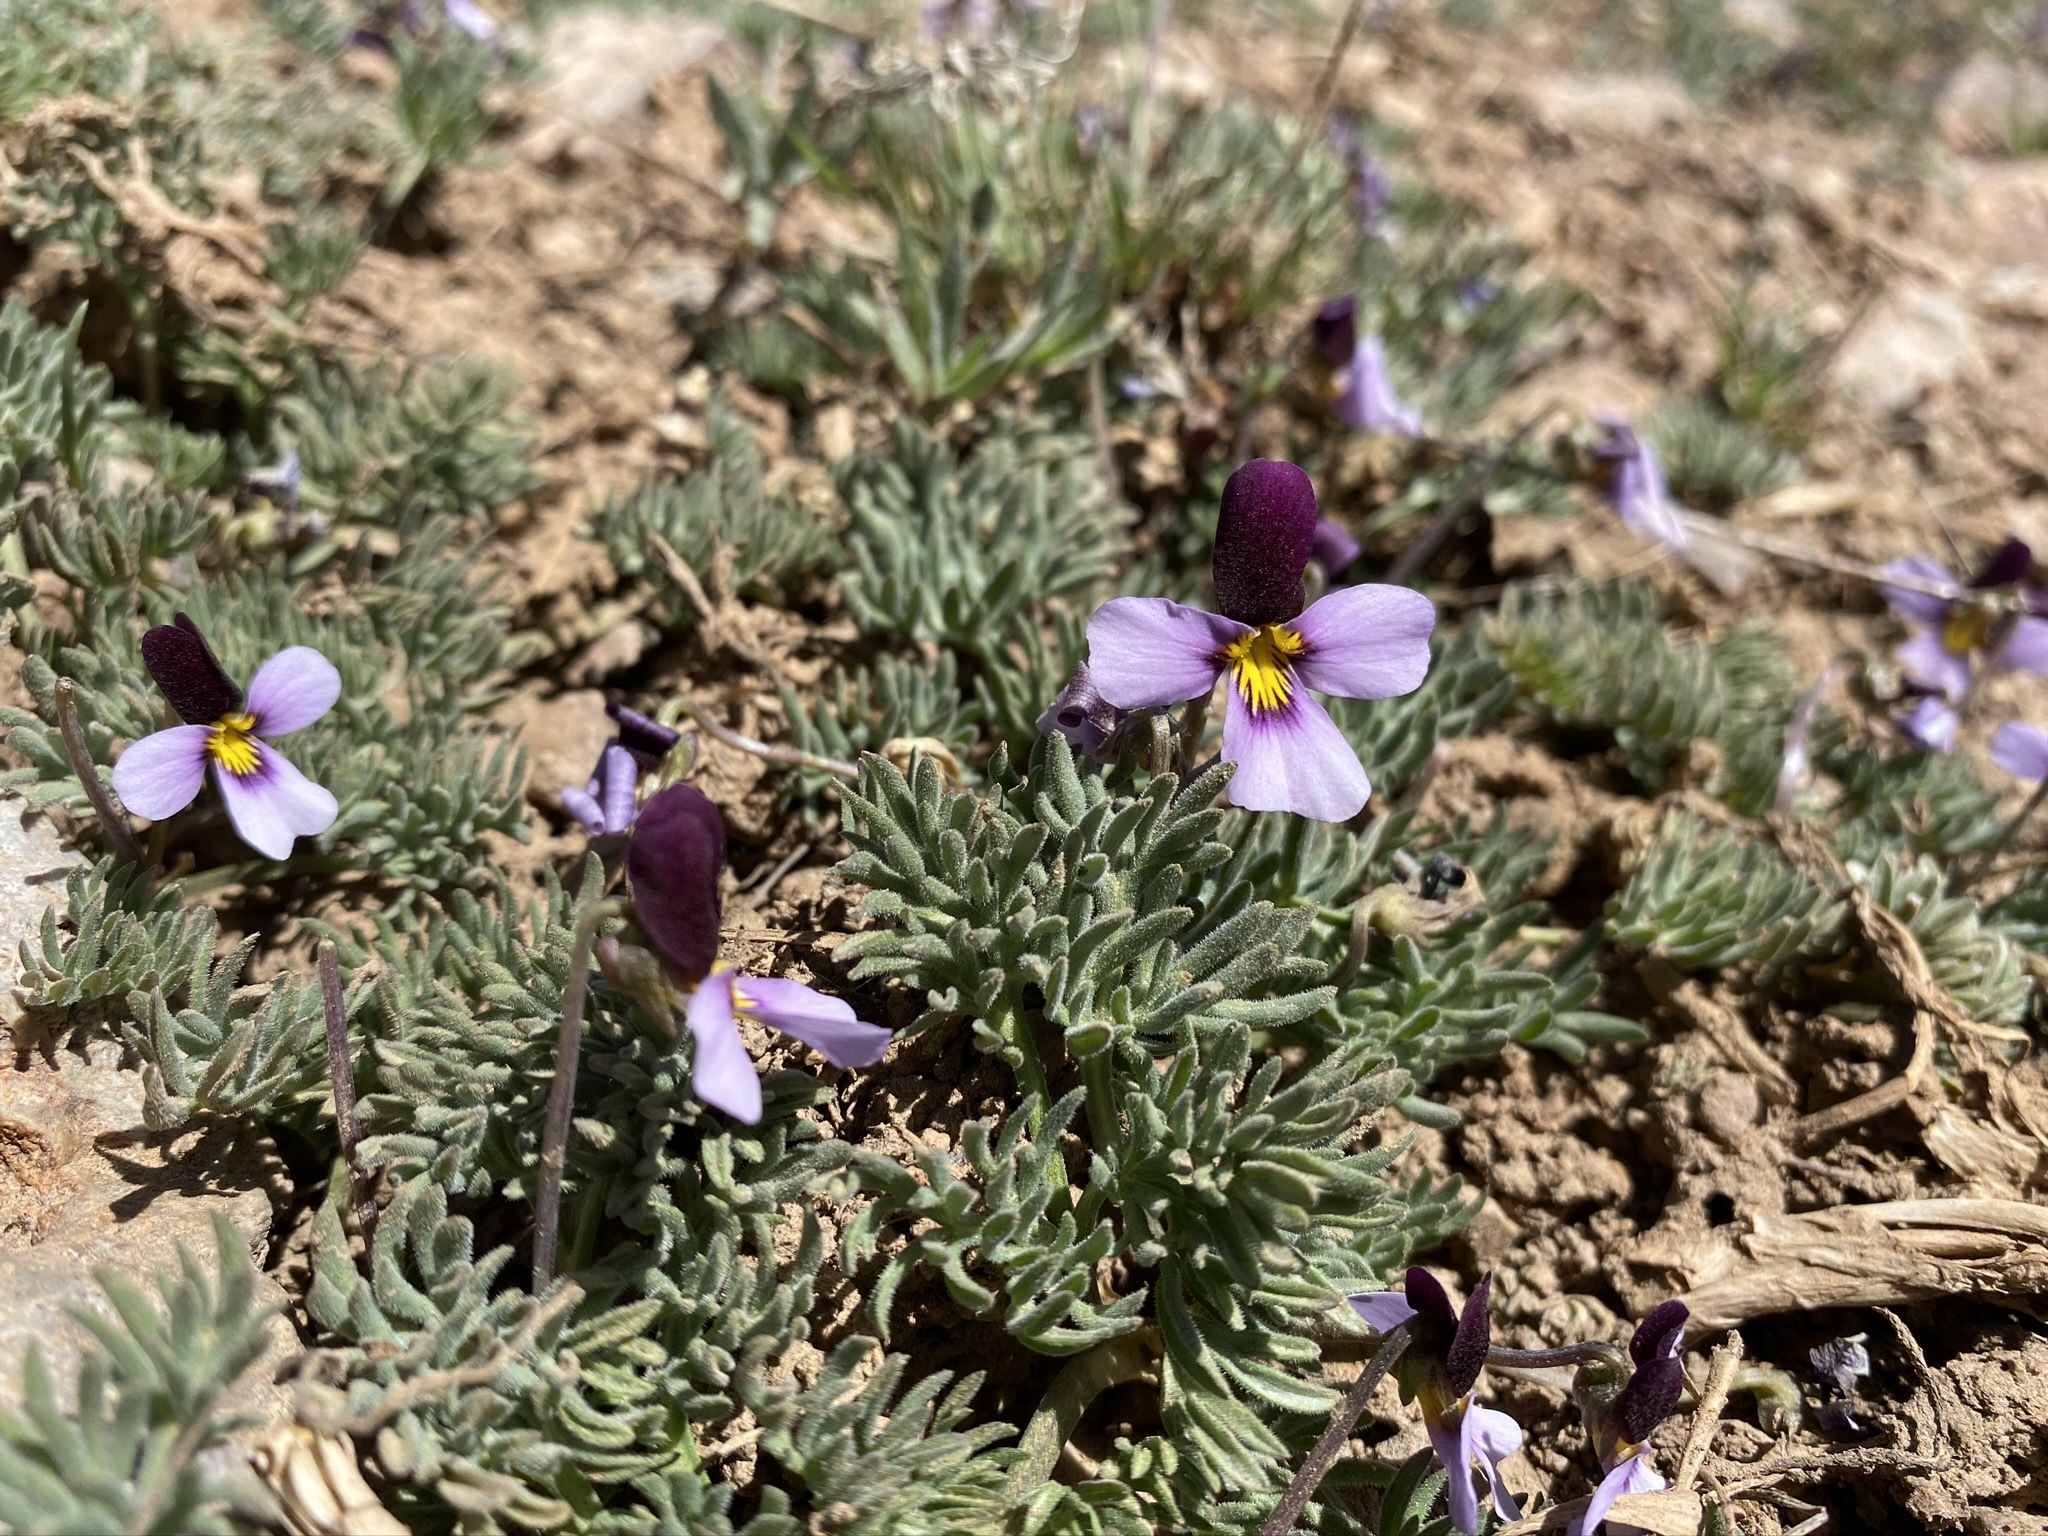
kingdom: Plantae
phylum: Tracheophyta
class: Magnoliopsida
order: Malpighiales
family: Violaceae
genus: Viola
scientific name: Viola beckwithii
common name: Beckwith's violet
